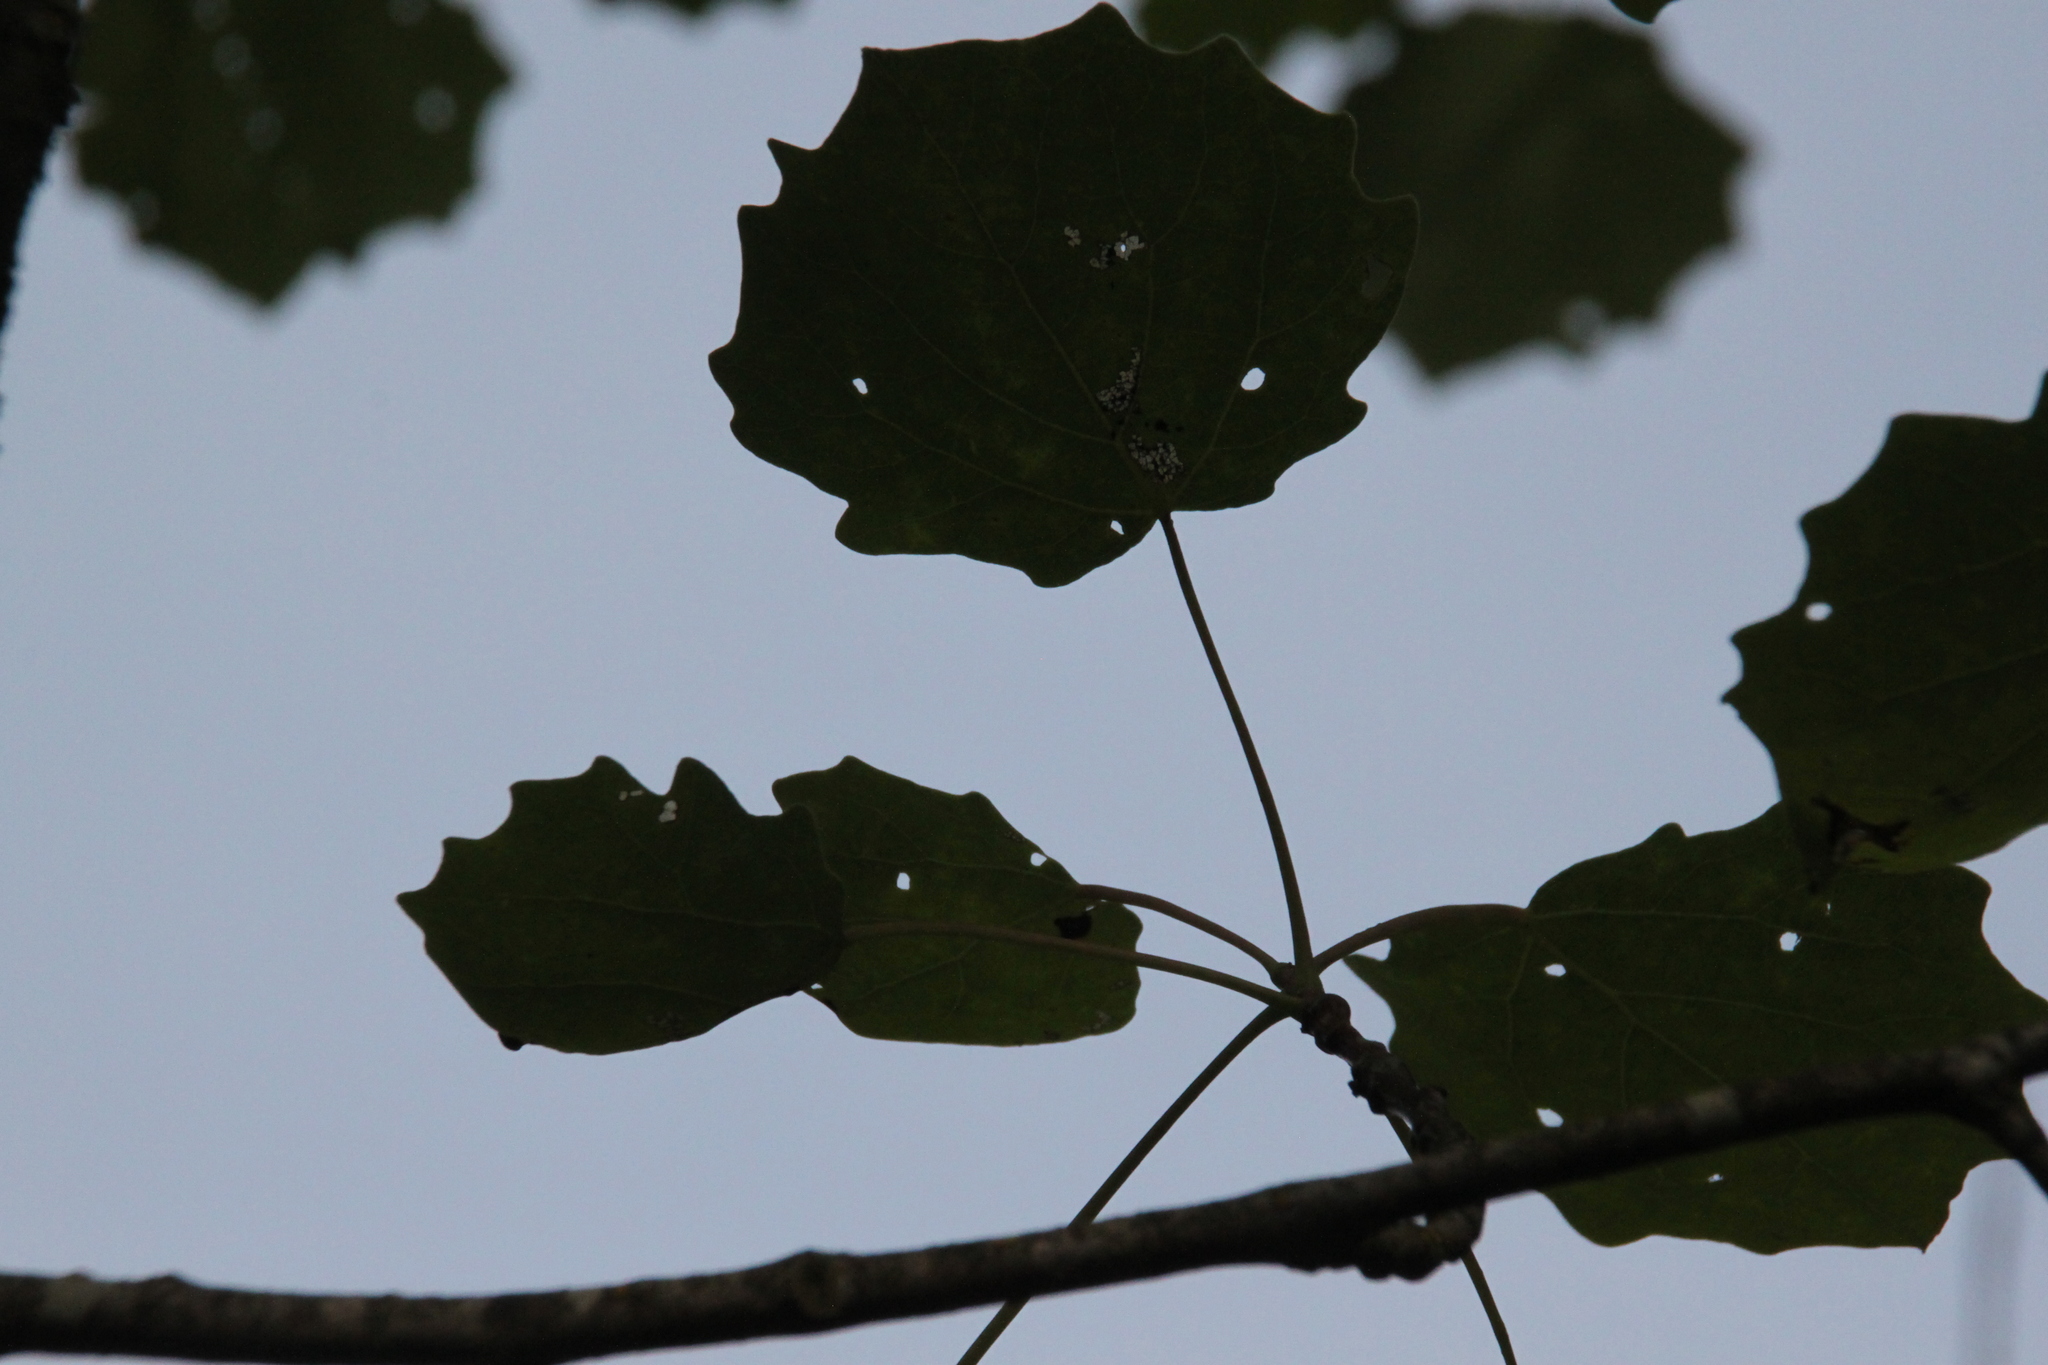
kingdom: Plantae
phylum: Tracheophyta
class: Magnoliopsida
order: Malpighiales
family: Salicaceae
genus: Populus
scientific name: Populus tremula
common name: European aspen
